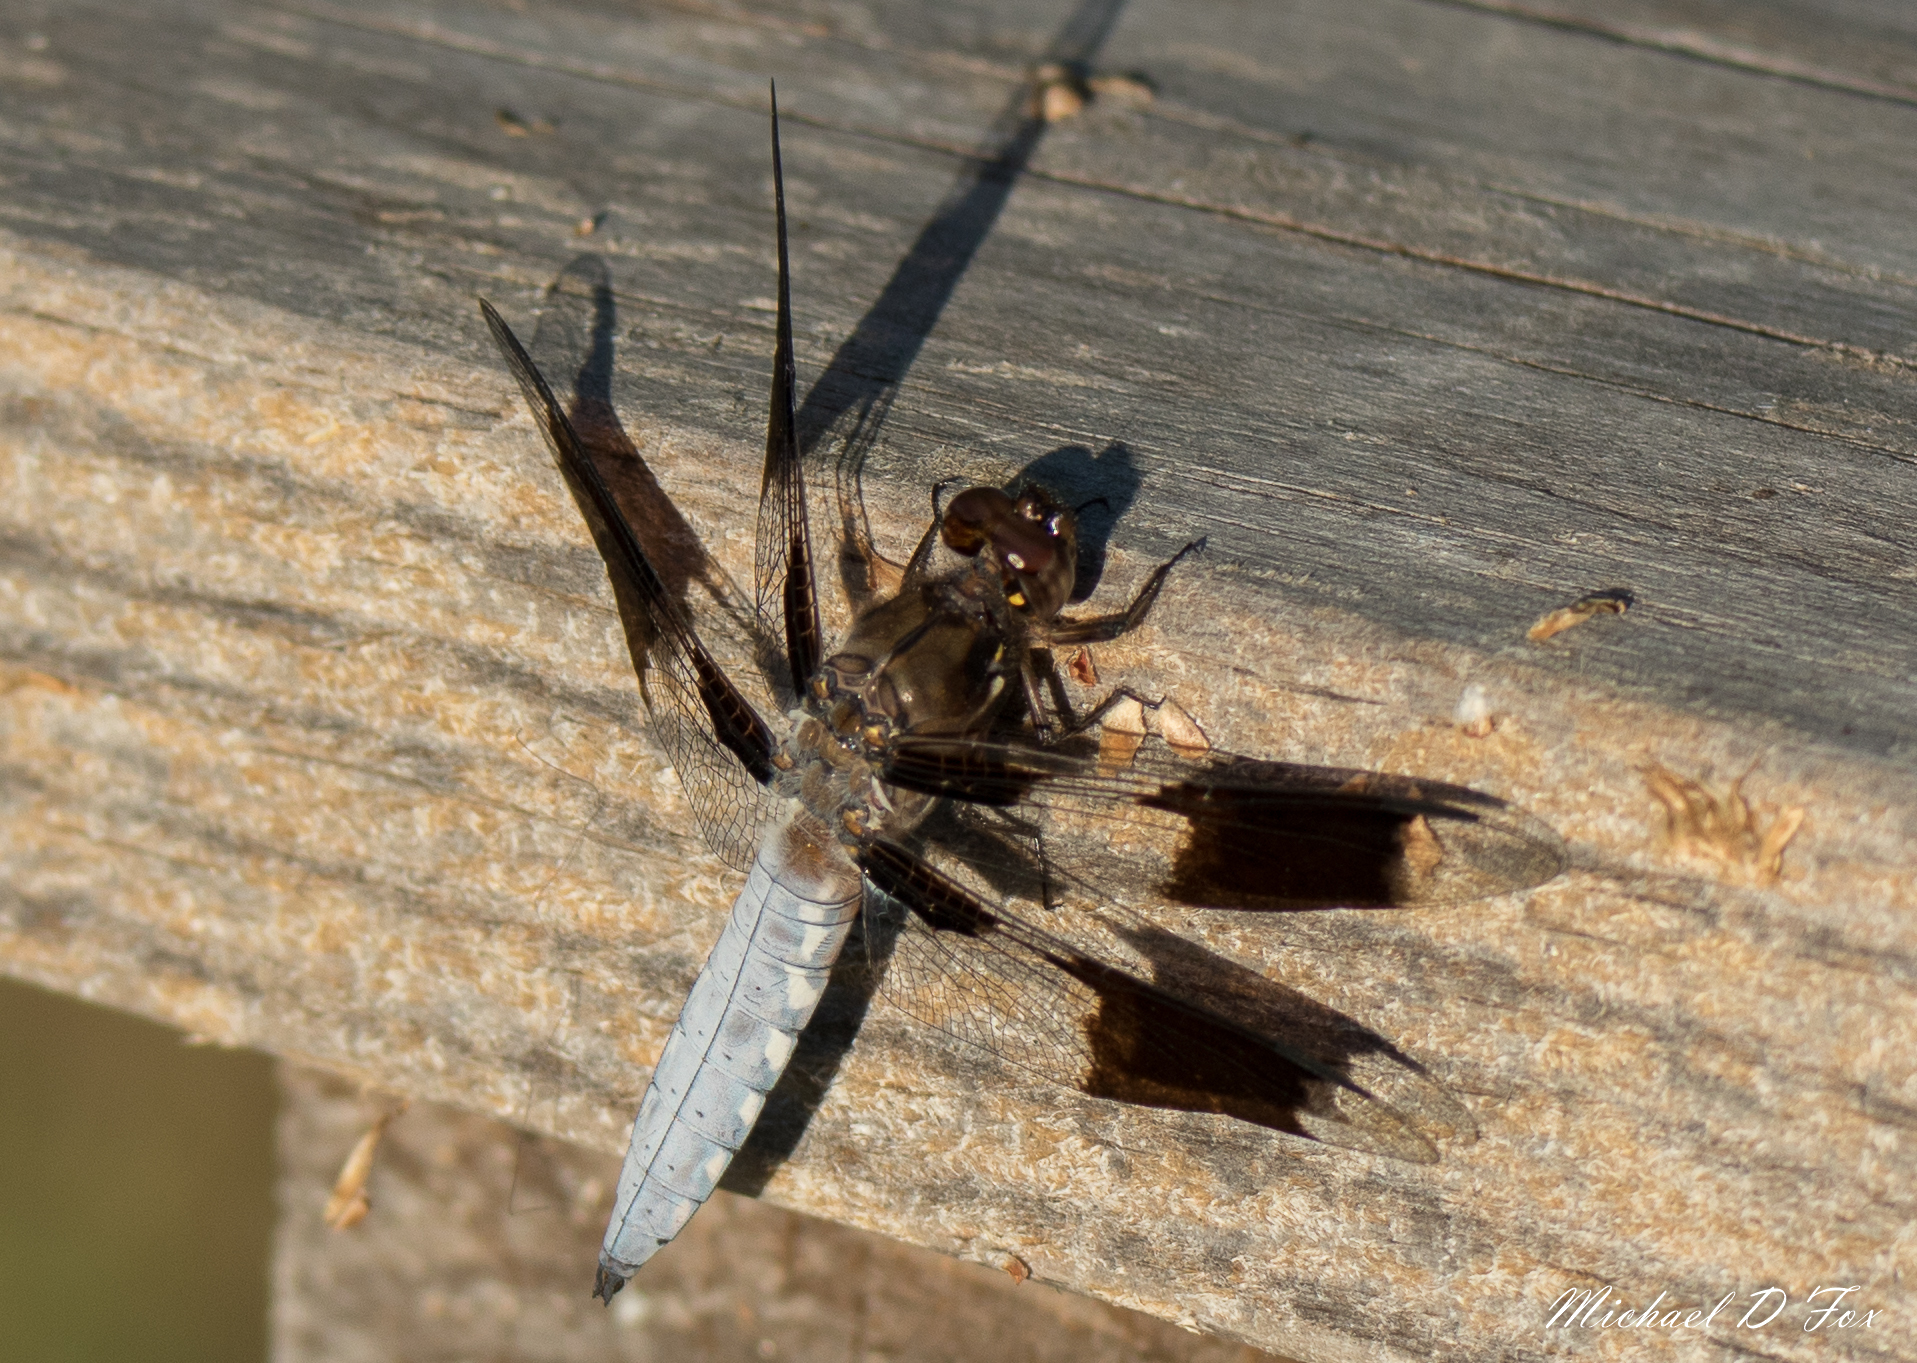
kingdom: Animalia
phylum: Arthropoda
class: Insecta
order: Odonata
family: Libellulidae
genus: Plathemis
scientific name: Plathemis lydia
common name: Common whitetail
